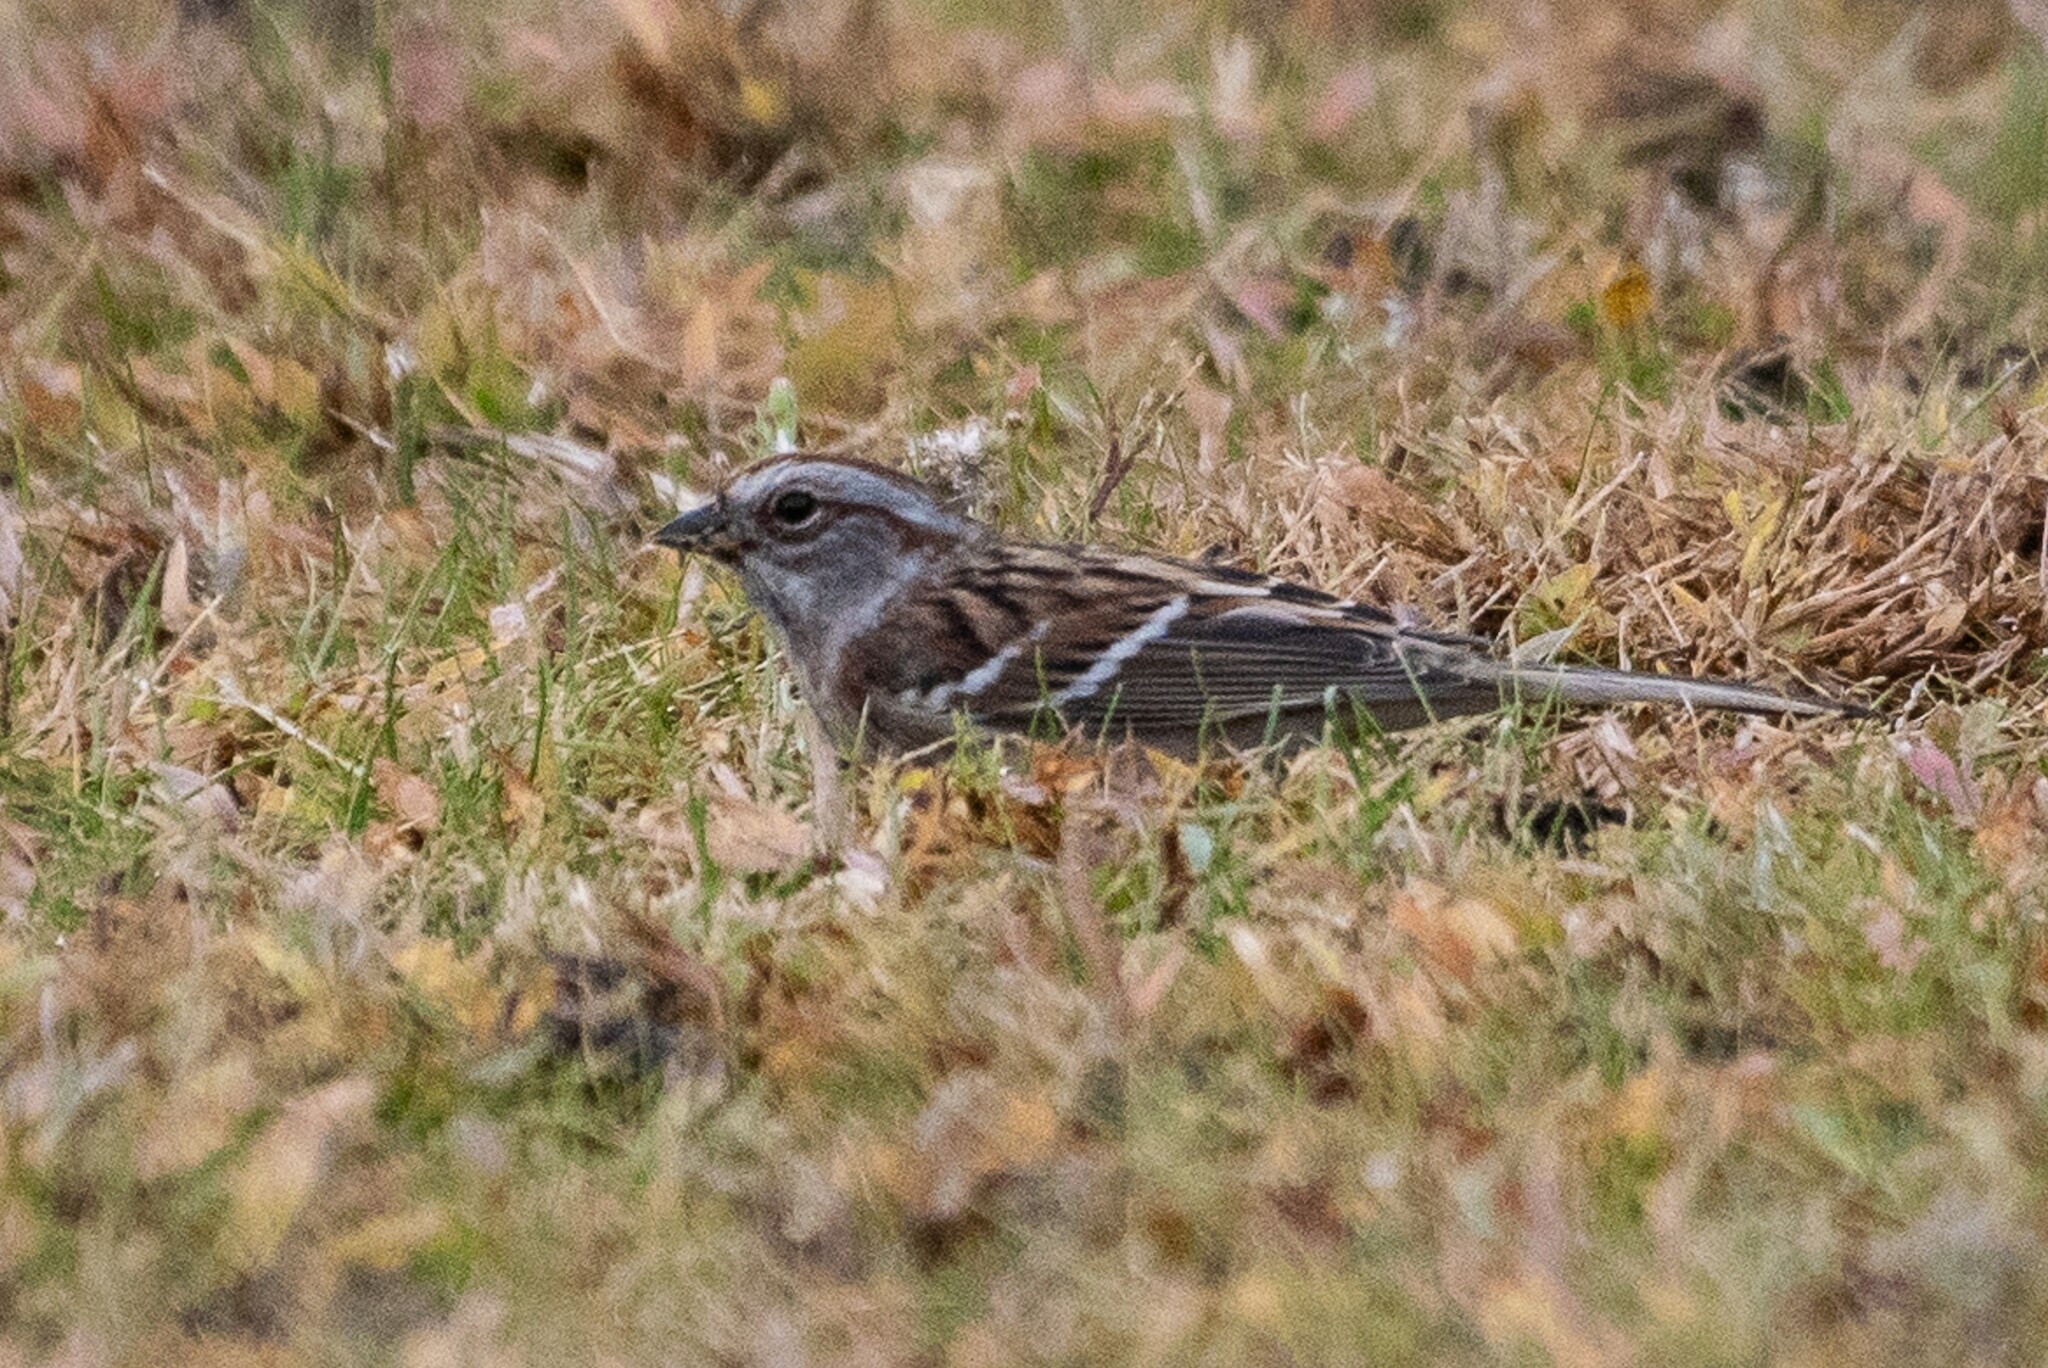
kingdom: Animalia
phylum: Chordata
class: Aves
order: Passeriformes
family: Passerellidae
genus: Spizelloides
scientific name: Spizelloides arborea
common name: American tree sparrow
